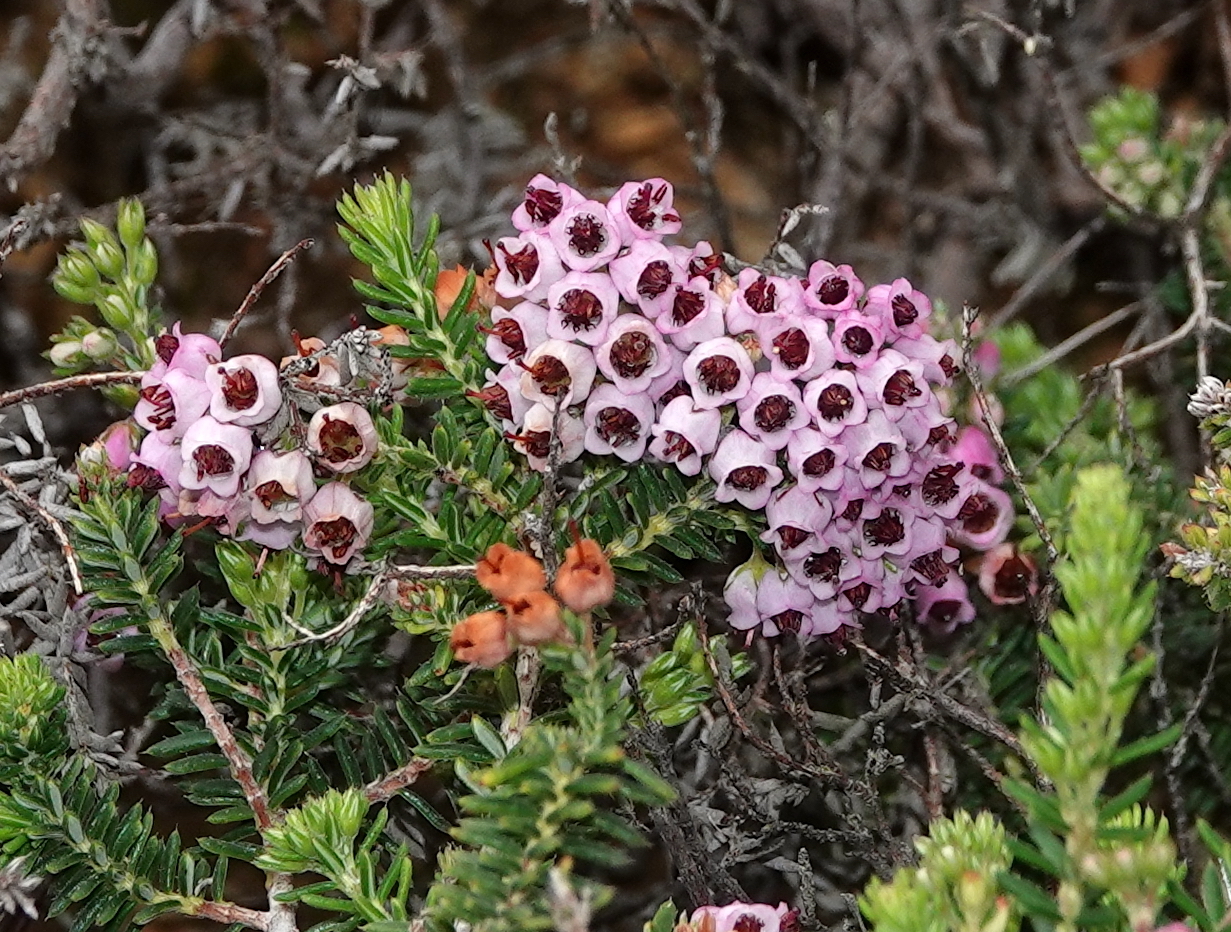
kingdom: Plantae
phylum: Tracheophyta
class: Magnoliopsida
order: Ericales
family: Ericaceae
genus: Erica
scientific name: Erica strigosa
